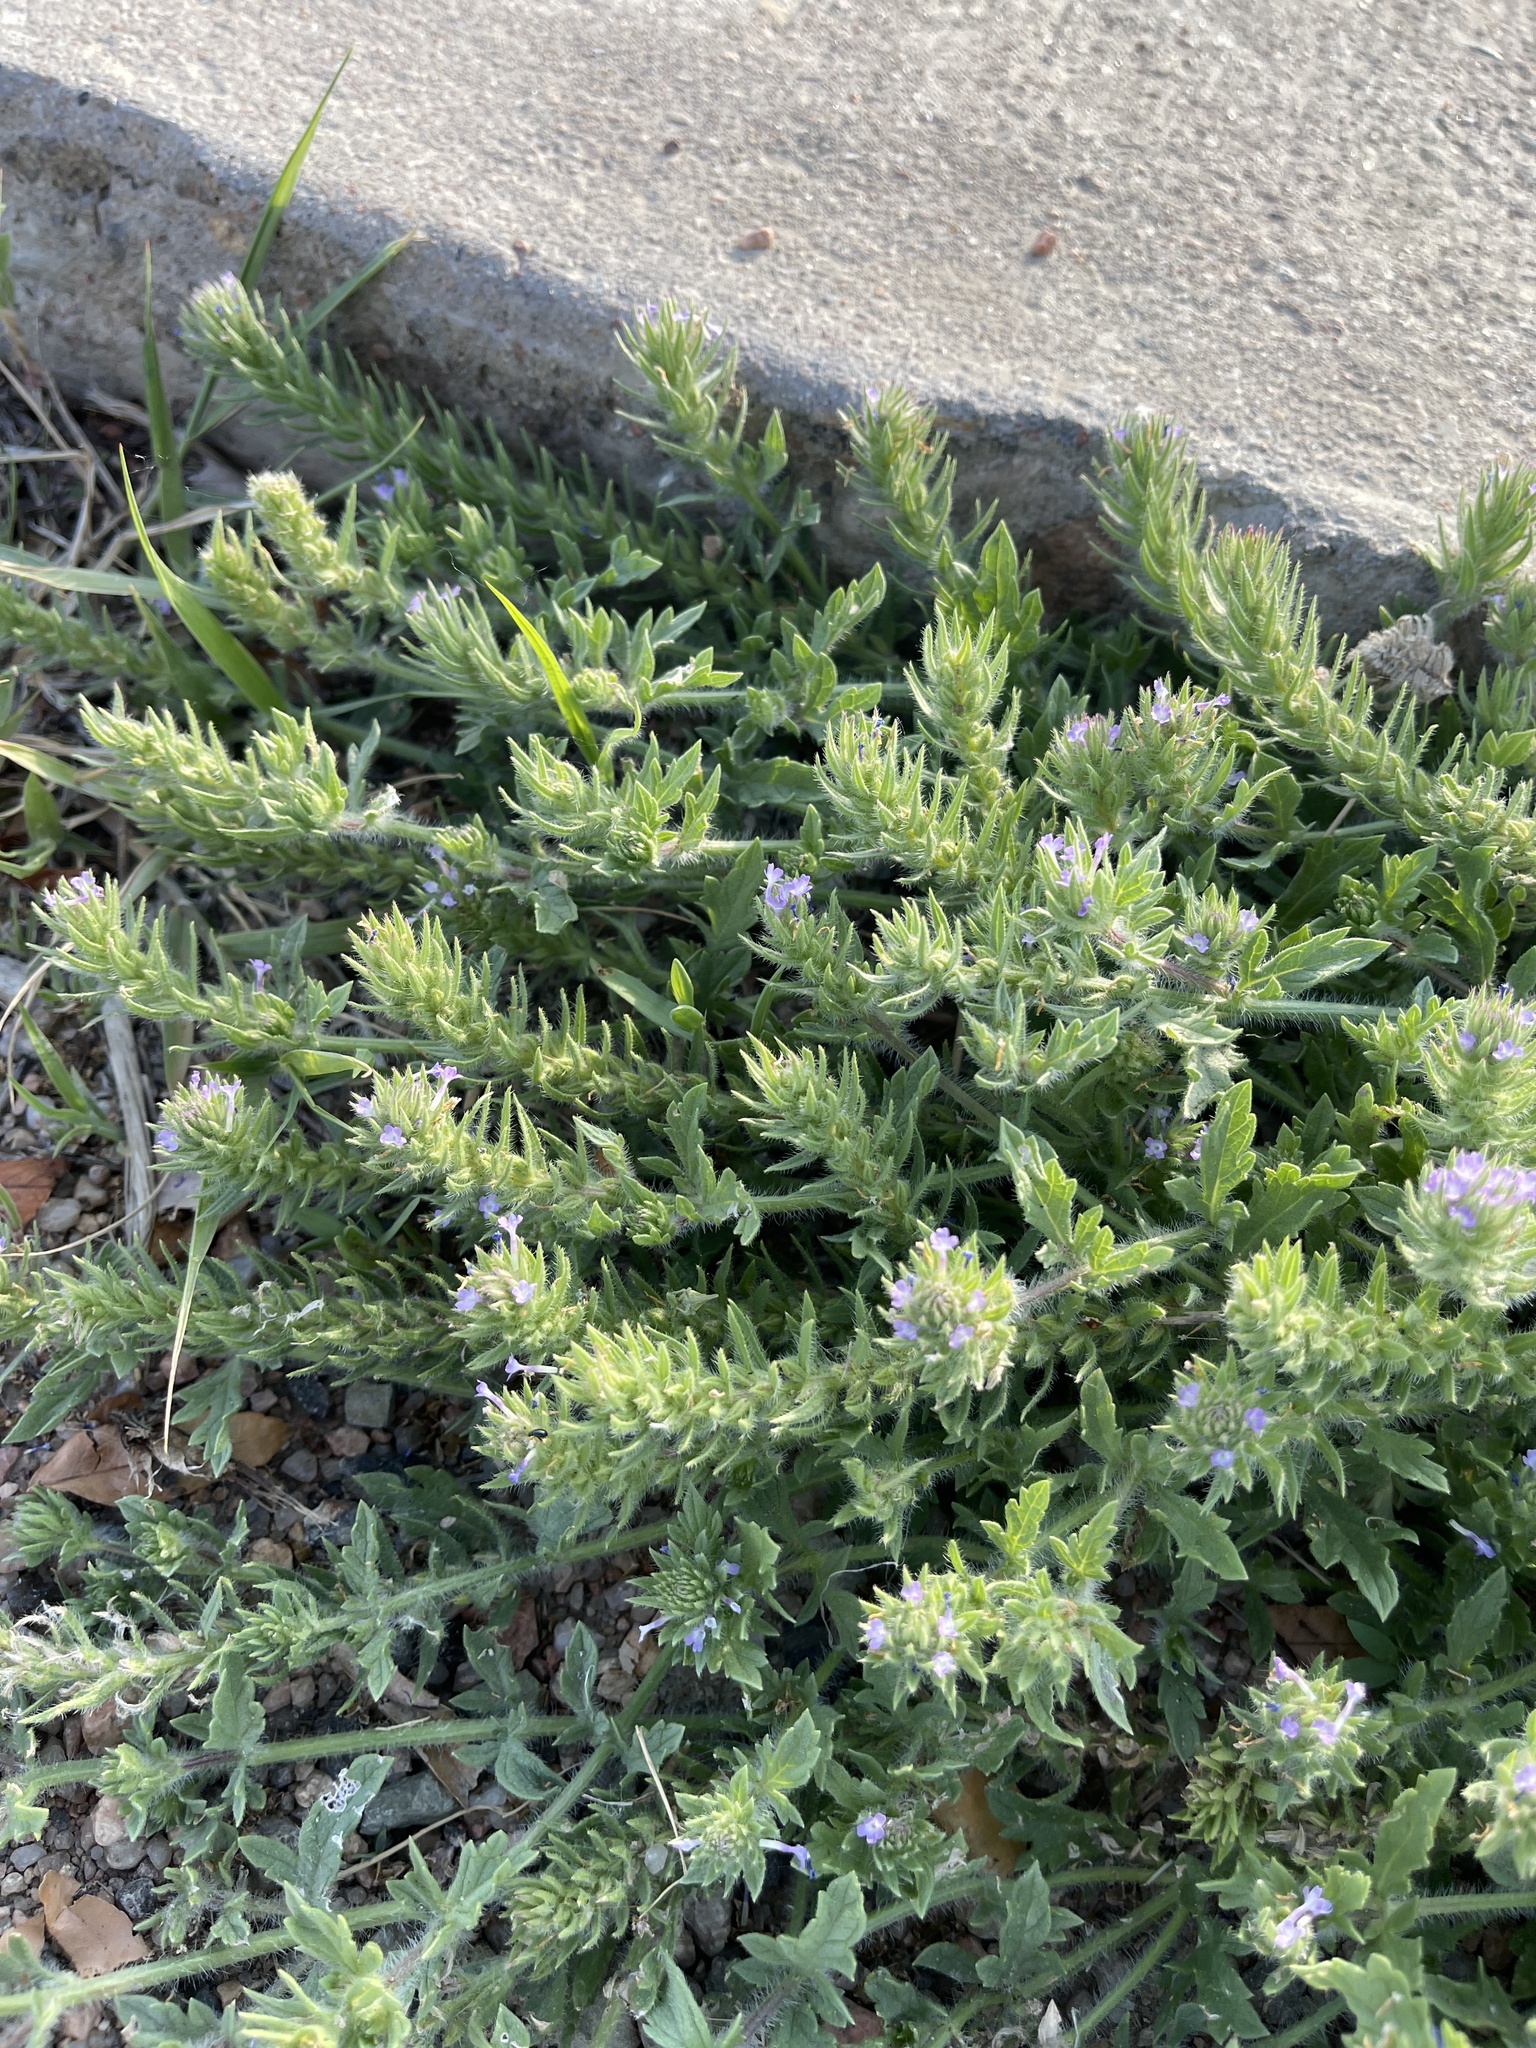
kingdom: Plantae
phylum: Tracheophyta
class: Magnoliopsida
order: Lamiales
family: Verbenaceae
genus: Verbena
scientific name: Verbena bracteata
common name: Bracted vervain
